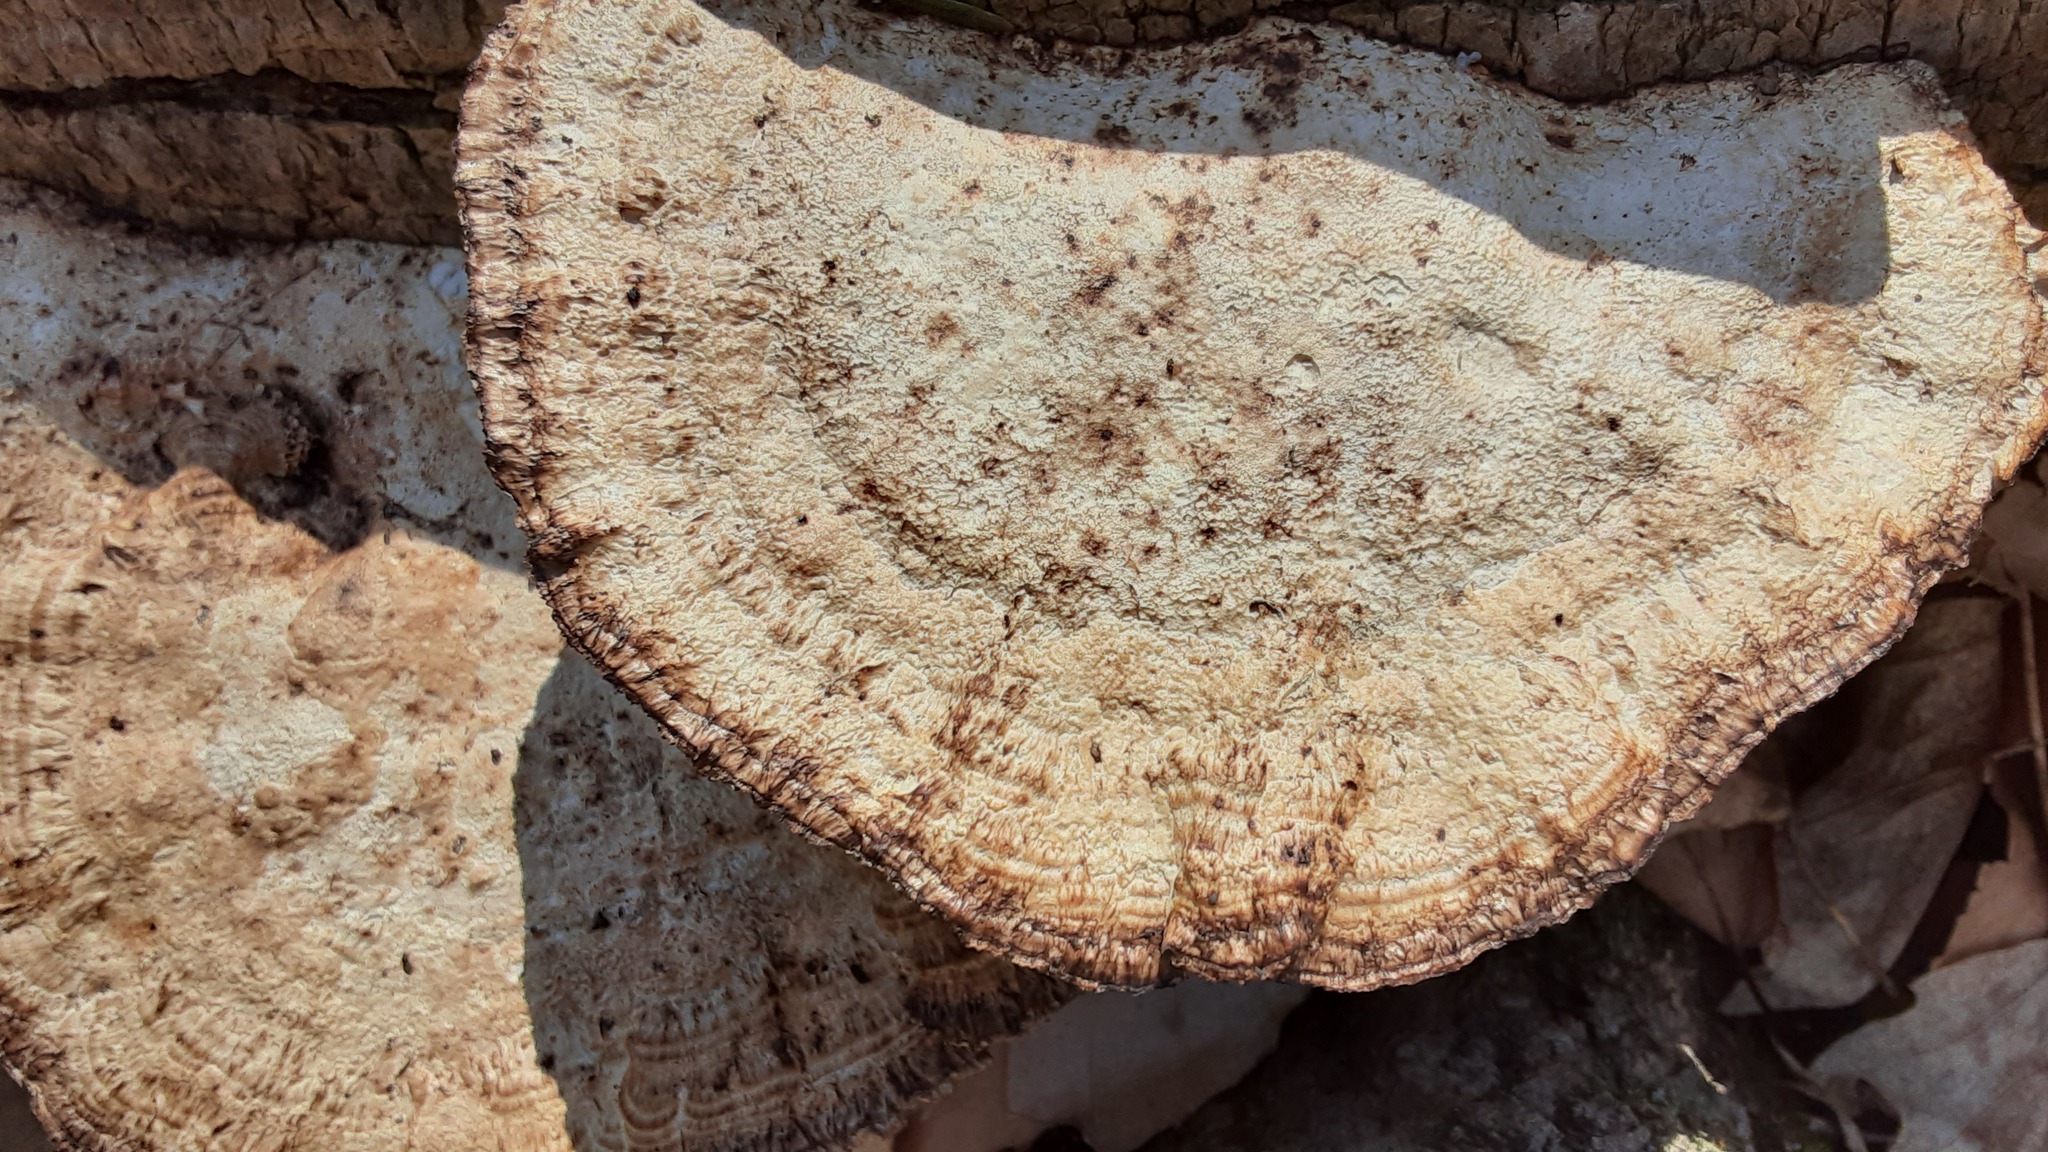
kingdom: Fungi
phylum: Basidiomycota
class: Agaricomycetes
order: Polyporales
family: Polyporaceae
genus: Daedaleopsis
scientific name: Daedaleopsis confragosa
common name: Blushing bracket
